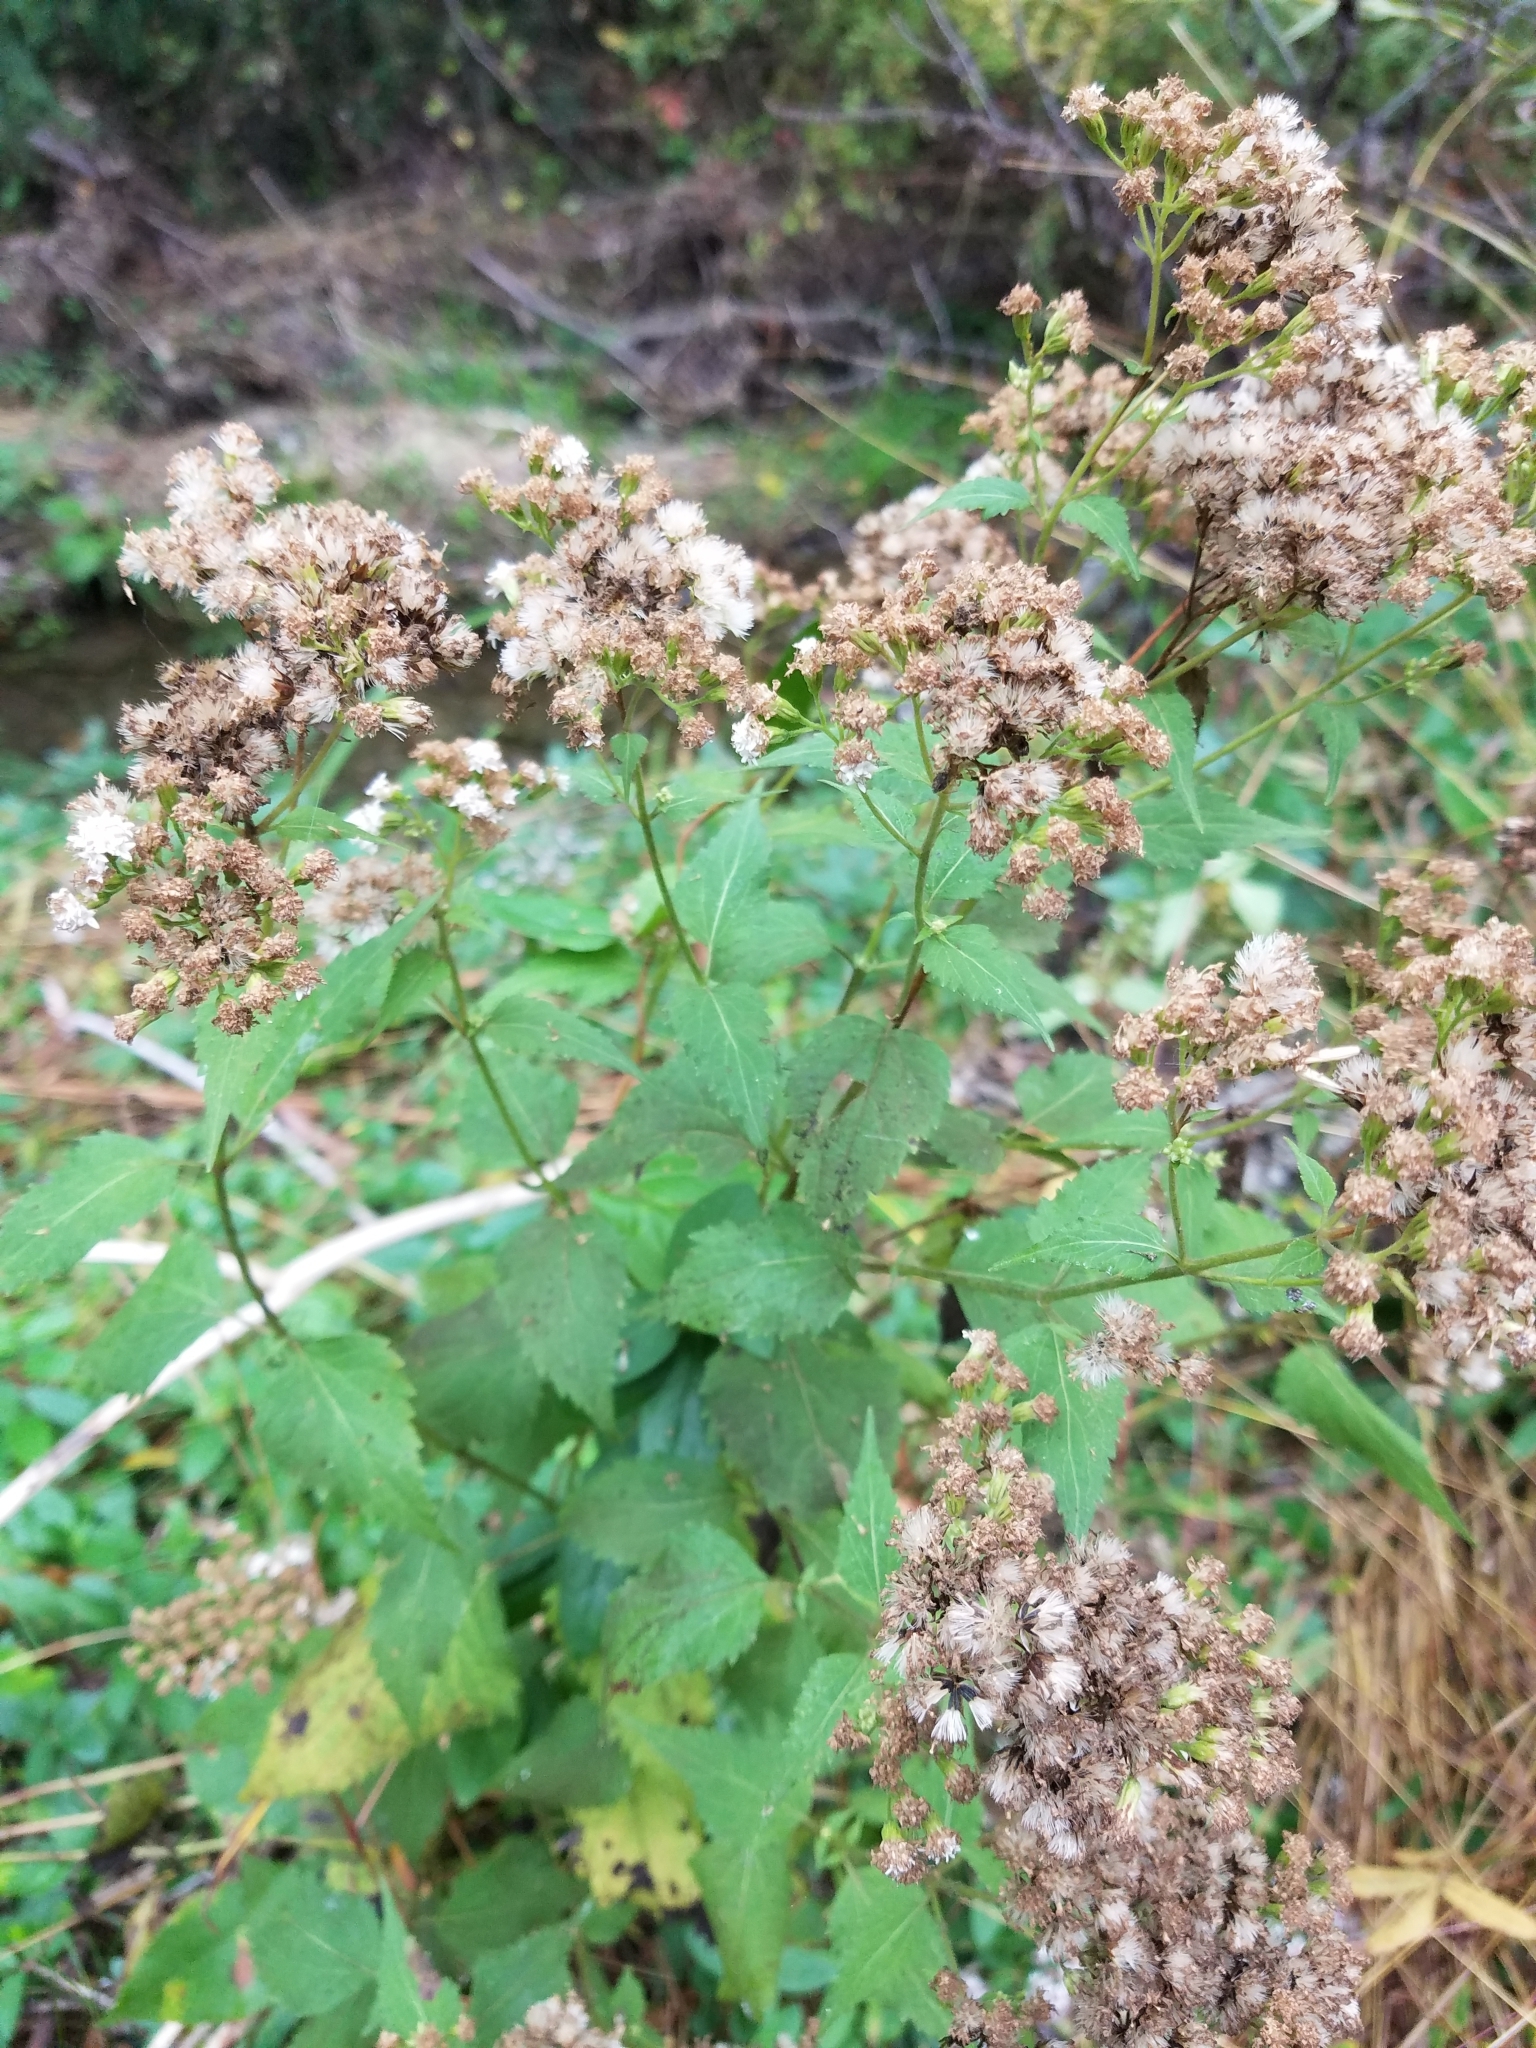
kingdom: Plantae
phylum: Tracheophyta
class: Magnoliopsida
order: Asterales
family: Asteraceae
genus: Ageratina
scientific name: Ageratina altissima
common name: White snakeroot
